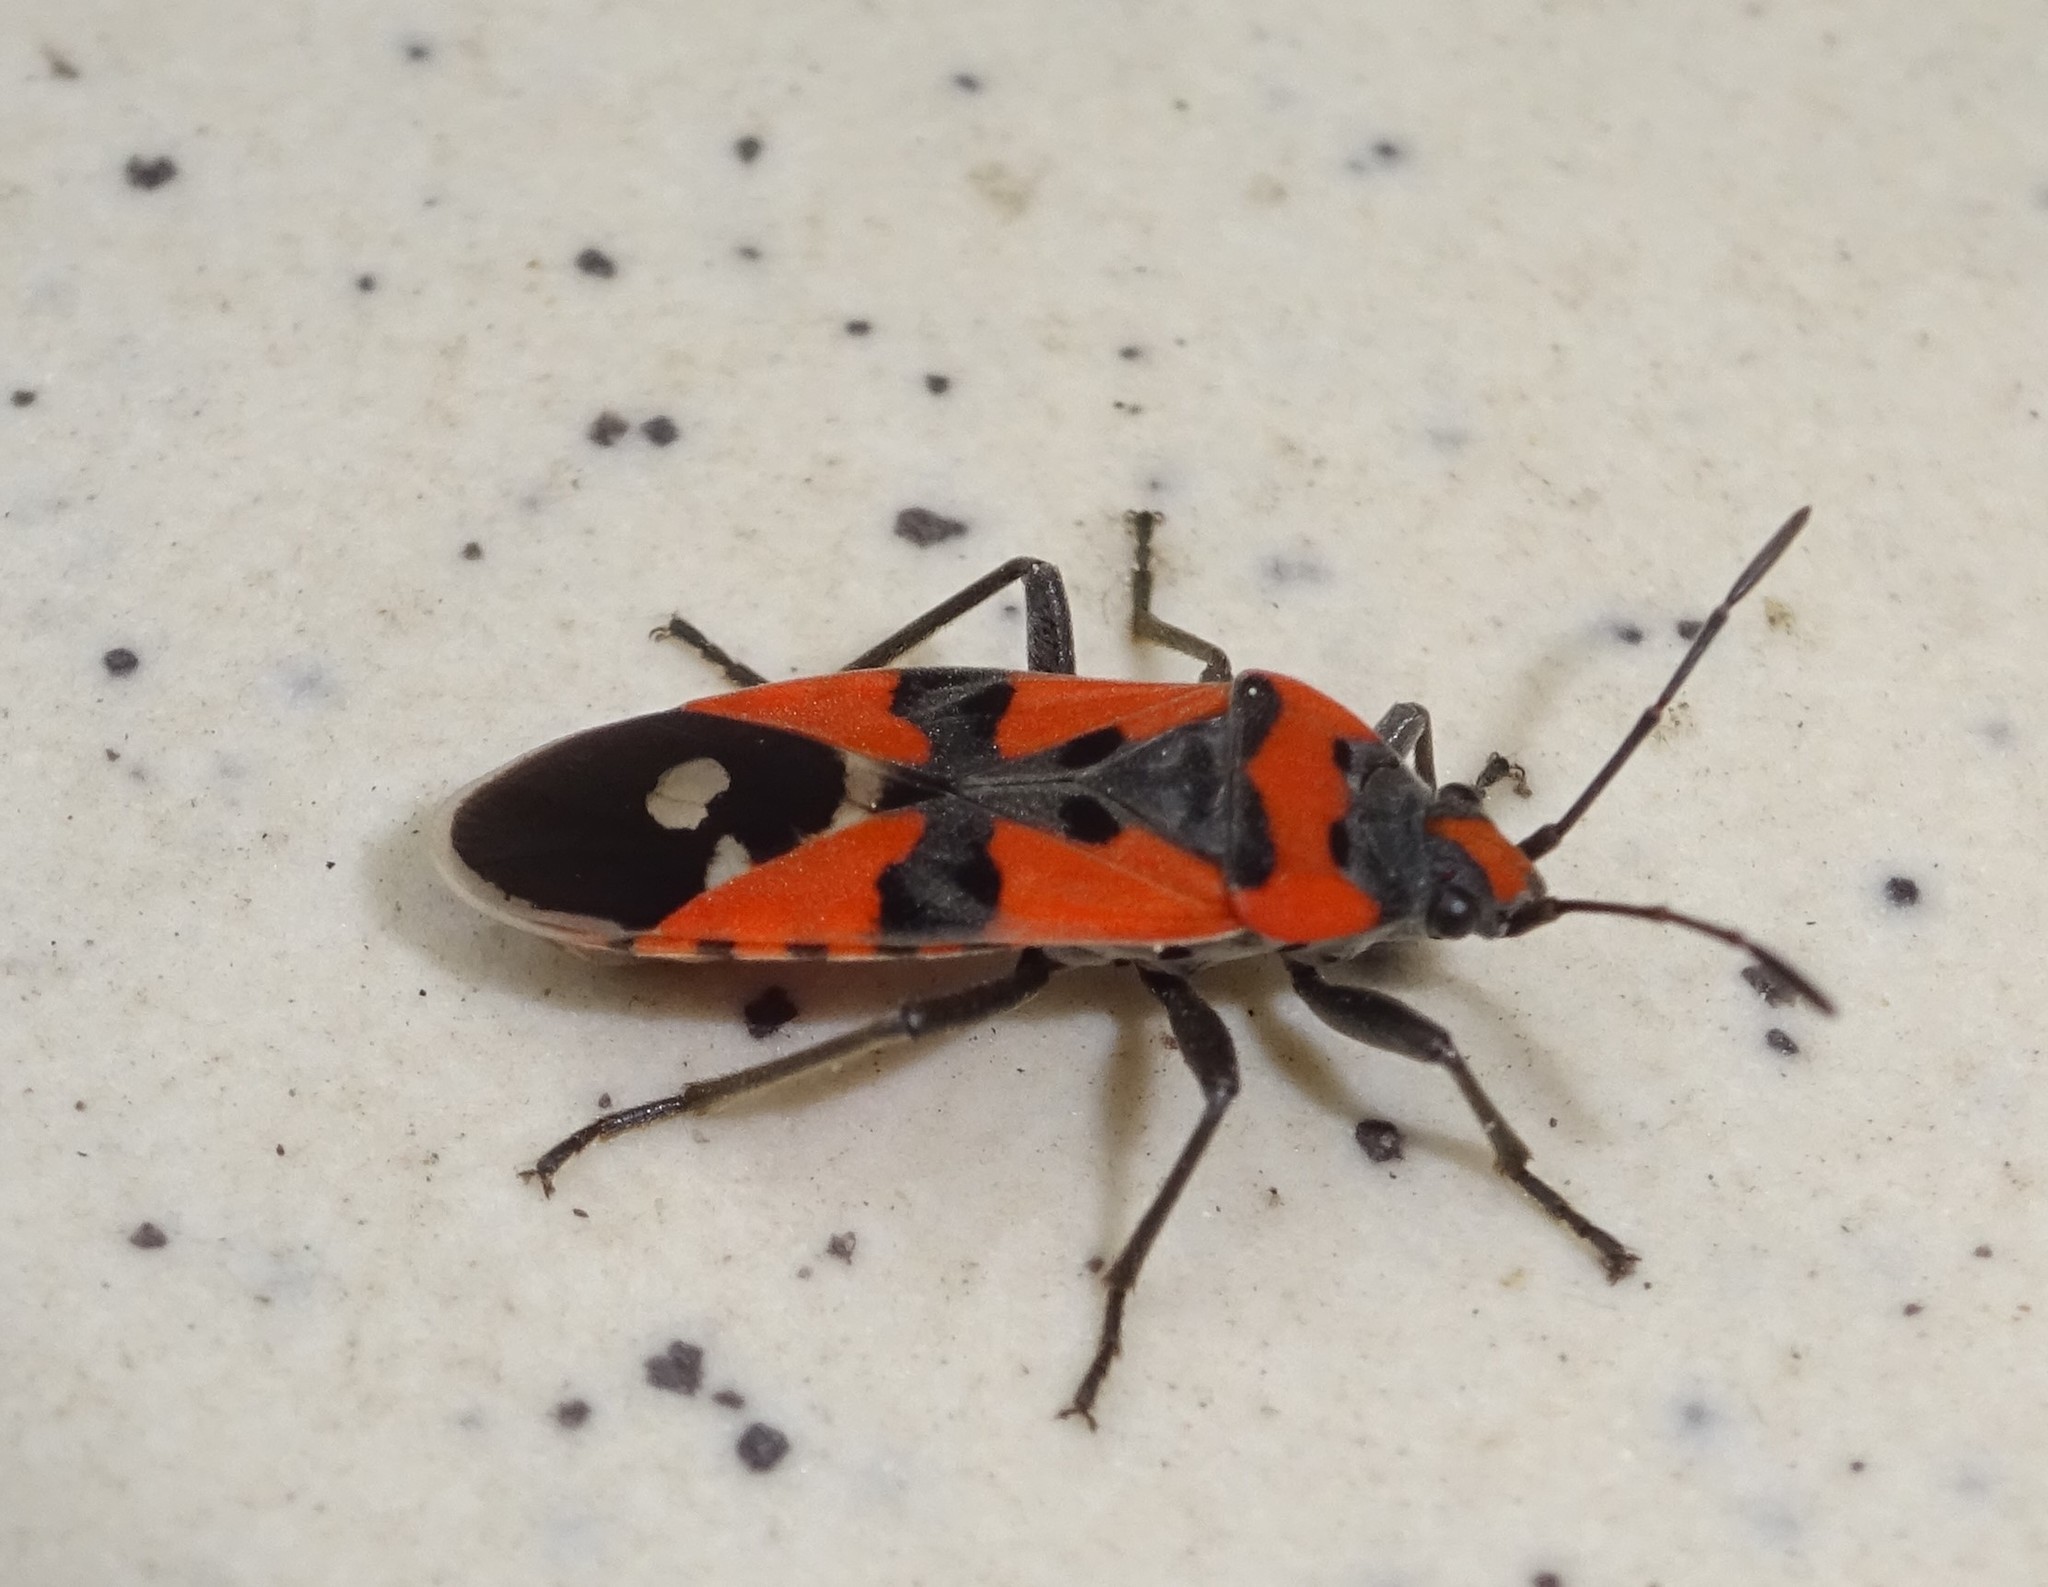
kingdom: Animalia
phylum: Arthropoda
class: Insecta
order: Hemiptera
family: Lygaeidae
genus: Lygaeus
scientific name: Lygaeus equestris
